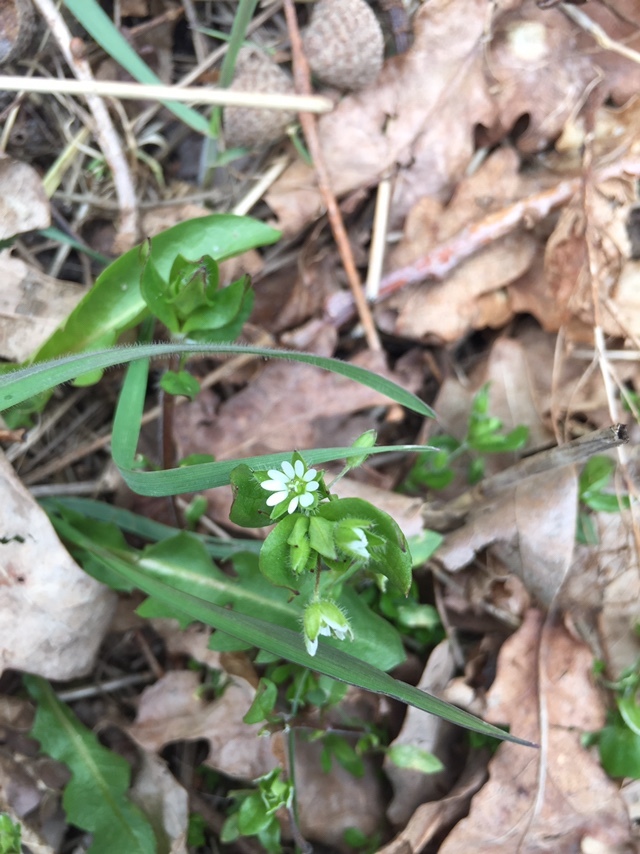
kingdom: Plantae
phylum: Tracheophyta
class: Magnoliopsida
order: Caryophyllales
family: Caryophyllaceae
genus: Stellaria
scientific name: Stellaria media
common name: Common chickweed
